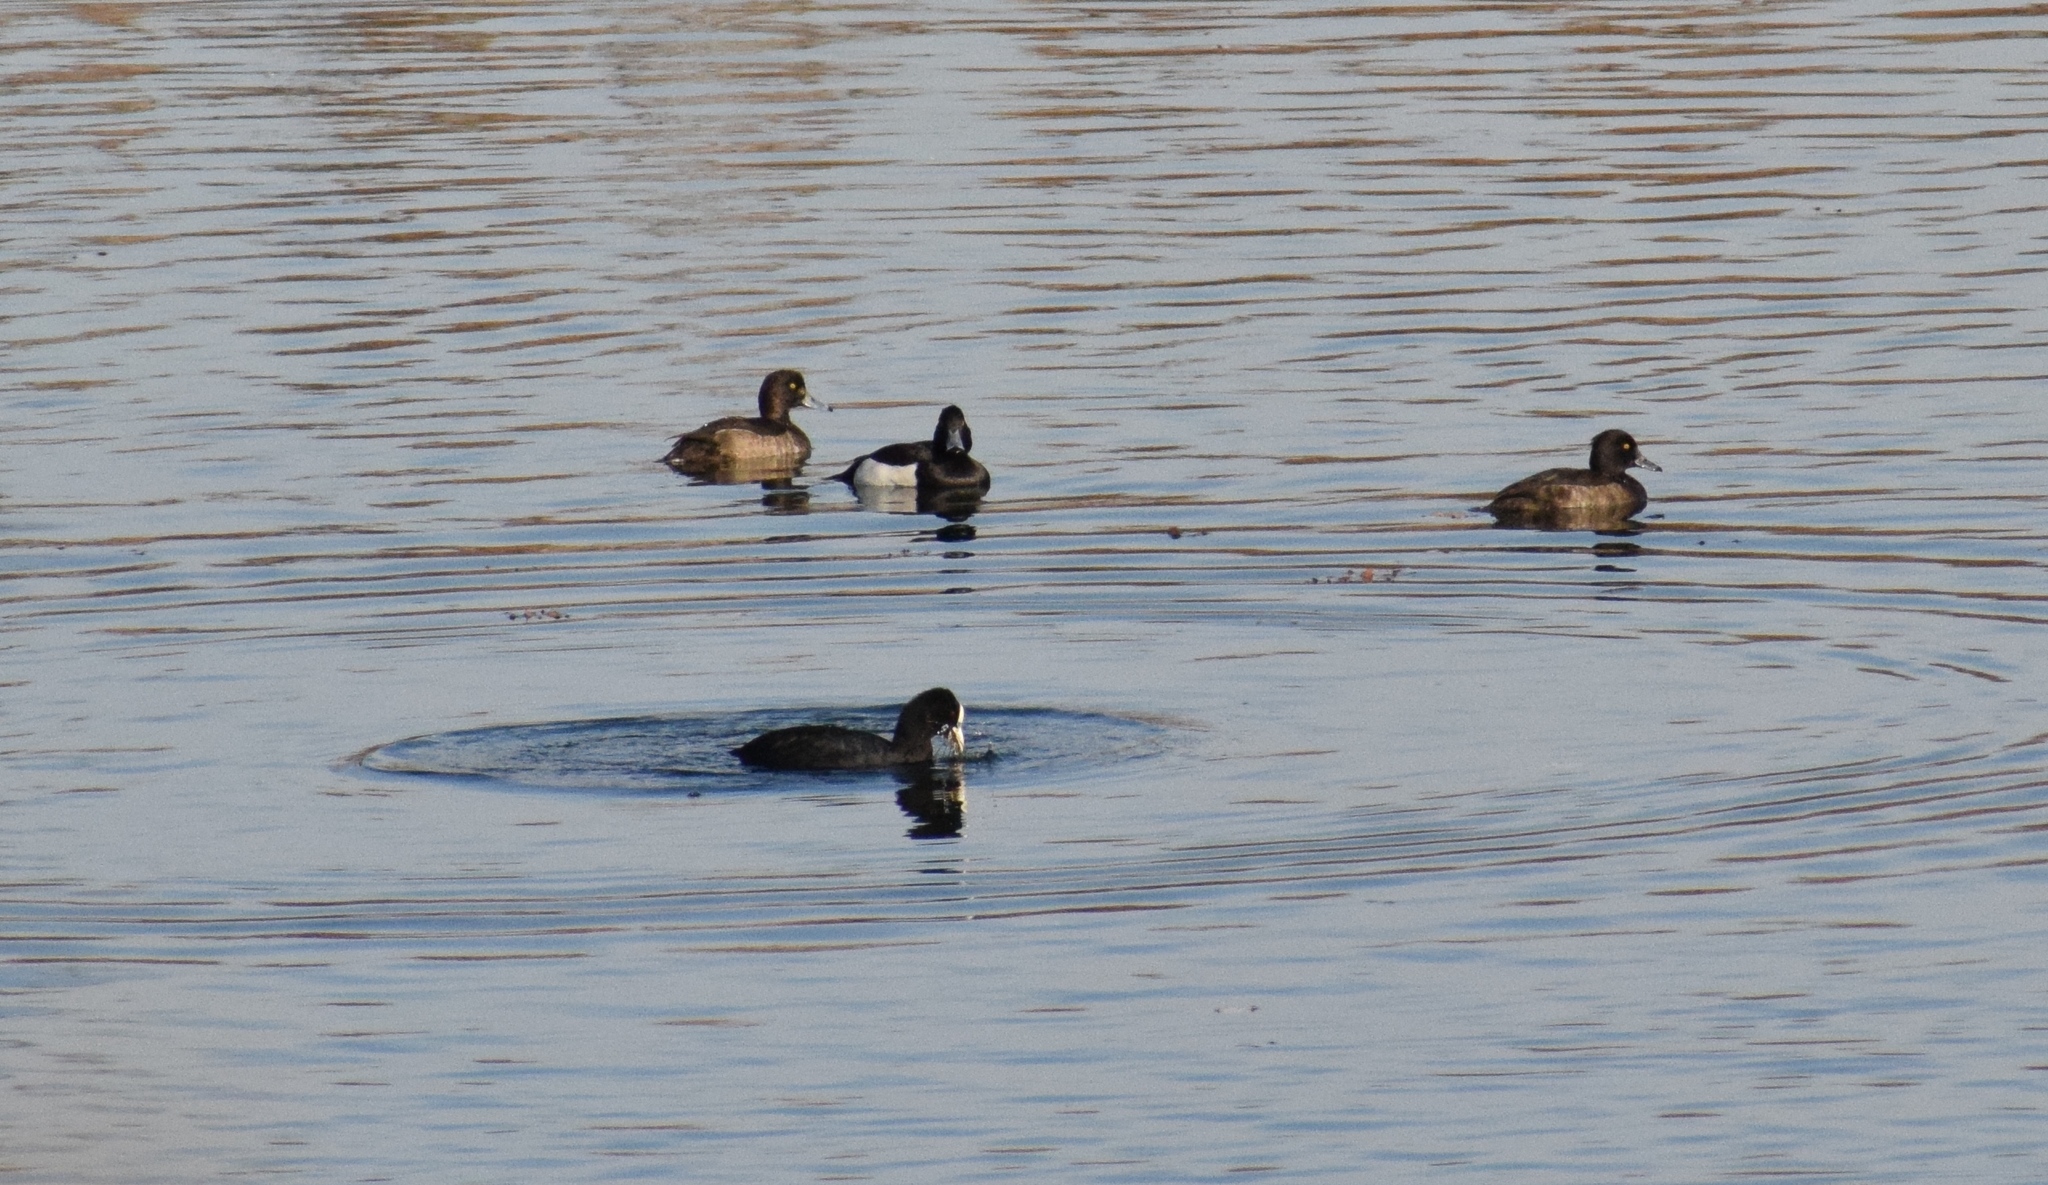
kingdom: Animalia
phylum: Chordata
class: Aves
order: Anseriformes
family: Anatidae
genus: Aythya
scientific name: Aythya fuligula
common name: Tufted duck
